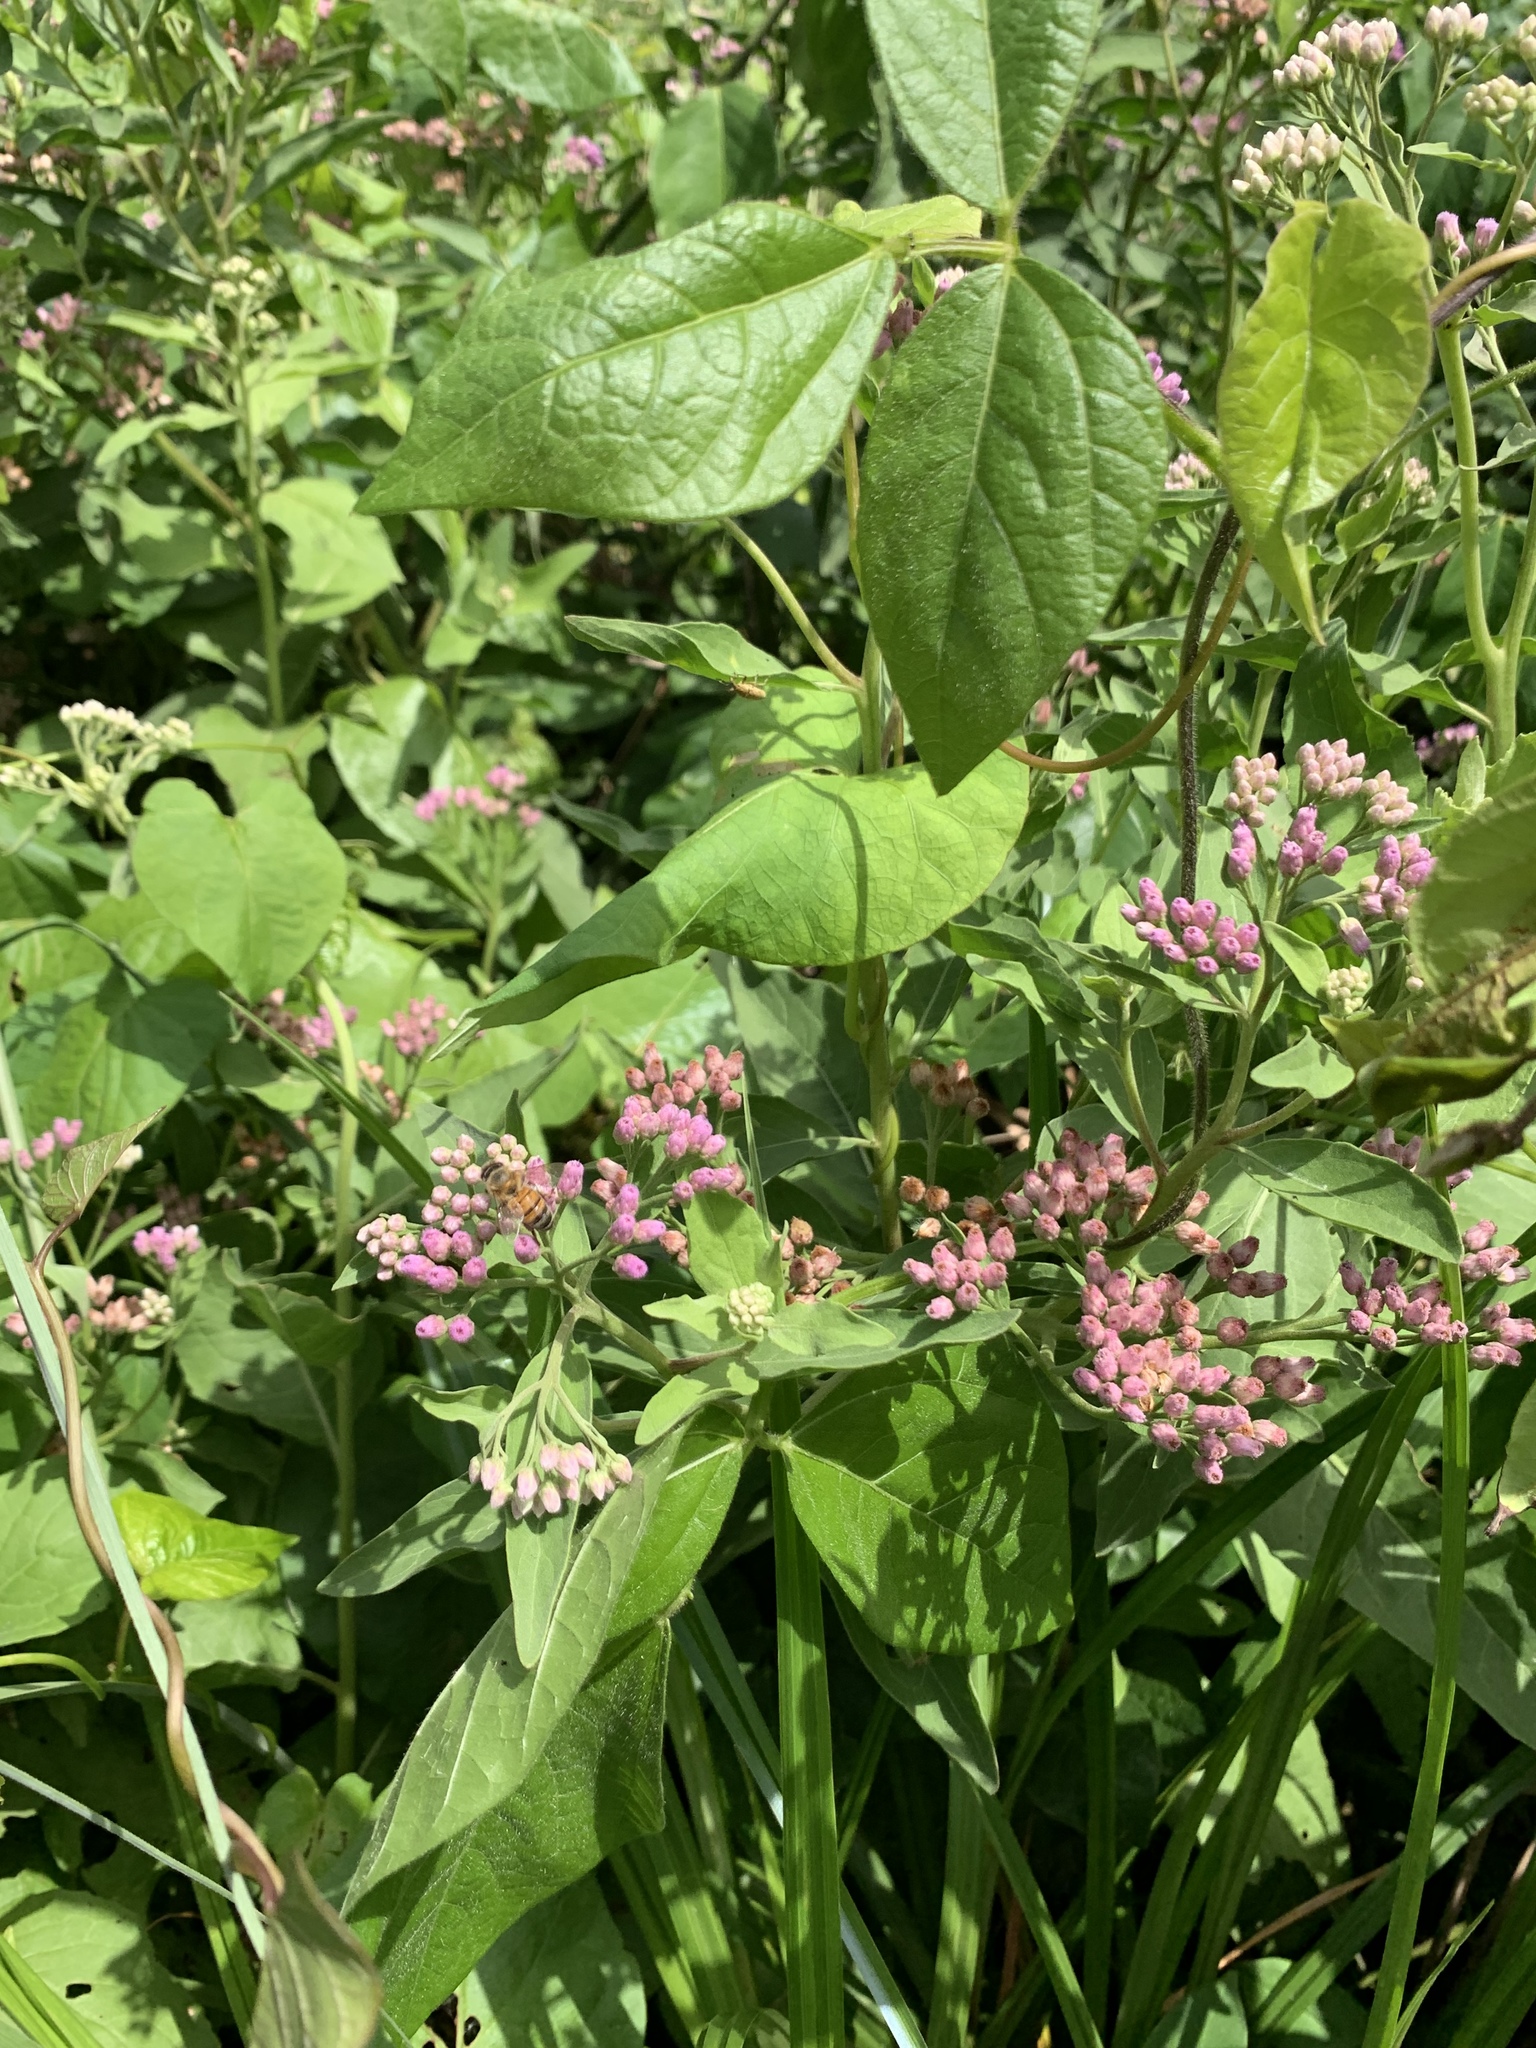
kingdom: Plantae
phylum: Tracheophyta
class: Magnoliopsida
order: Asterales
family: Asteraceae
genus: Pluchea
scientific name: Pluchea odorata
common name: Saltmarsh fleabane
